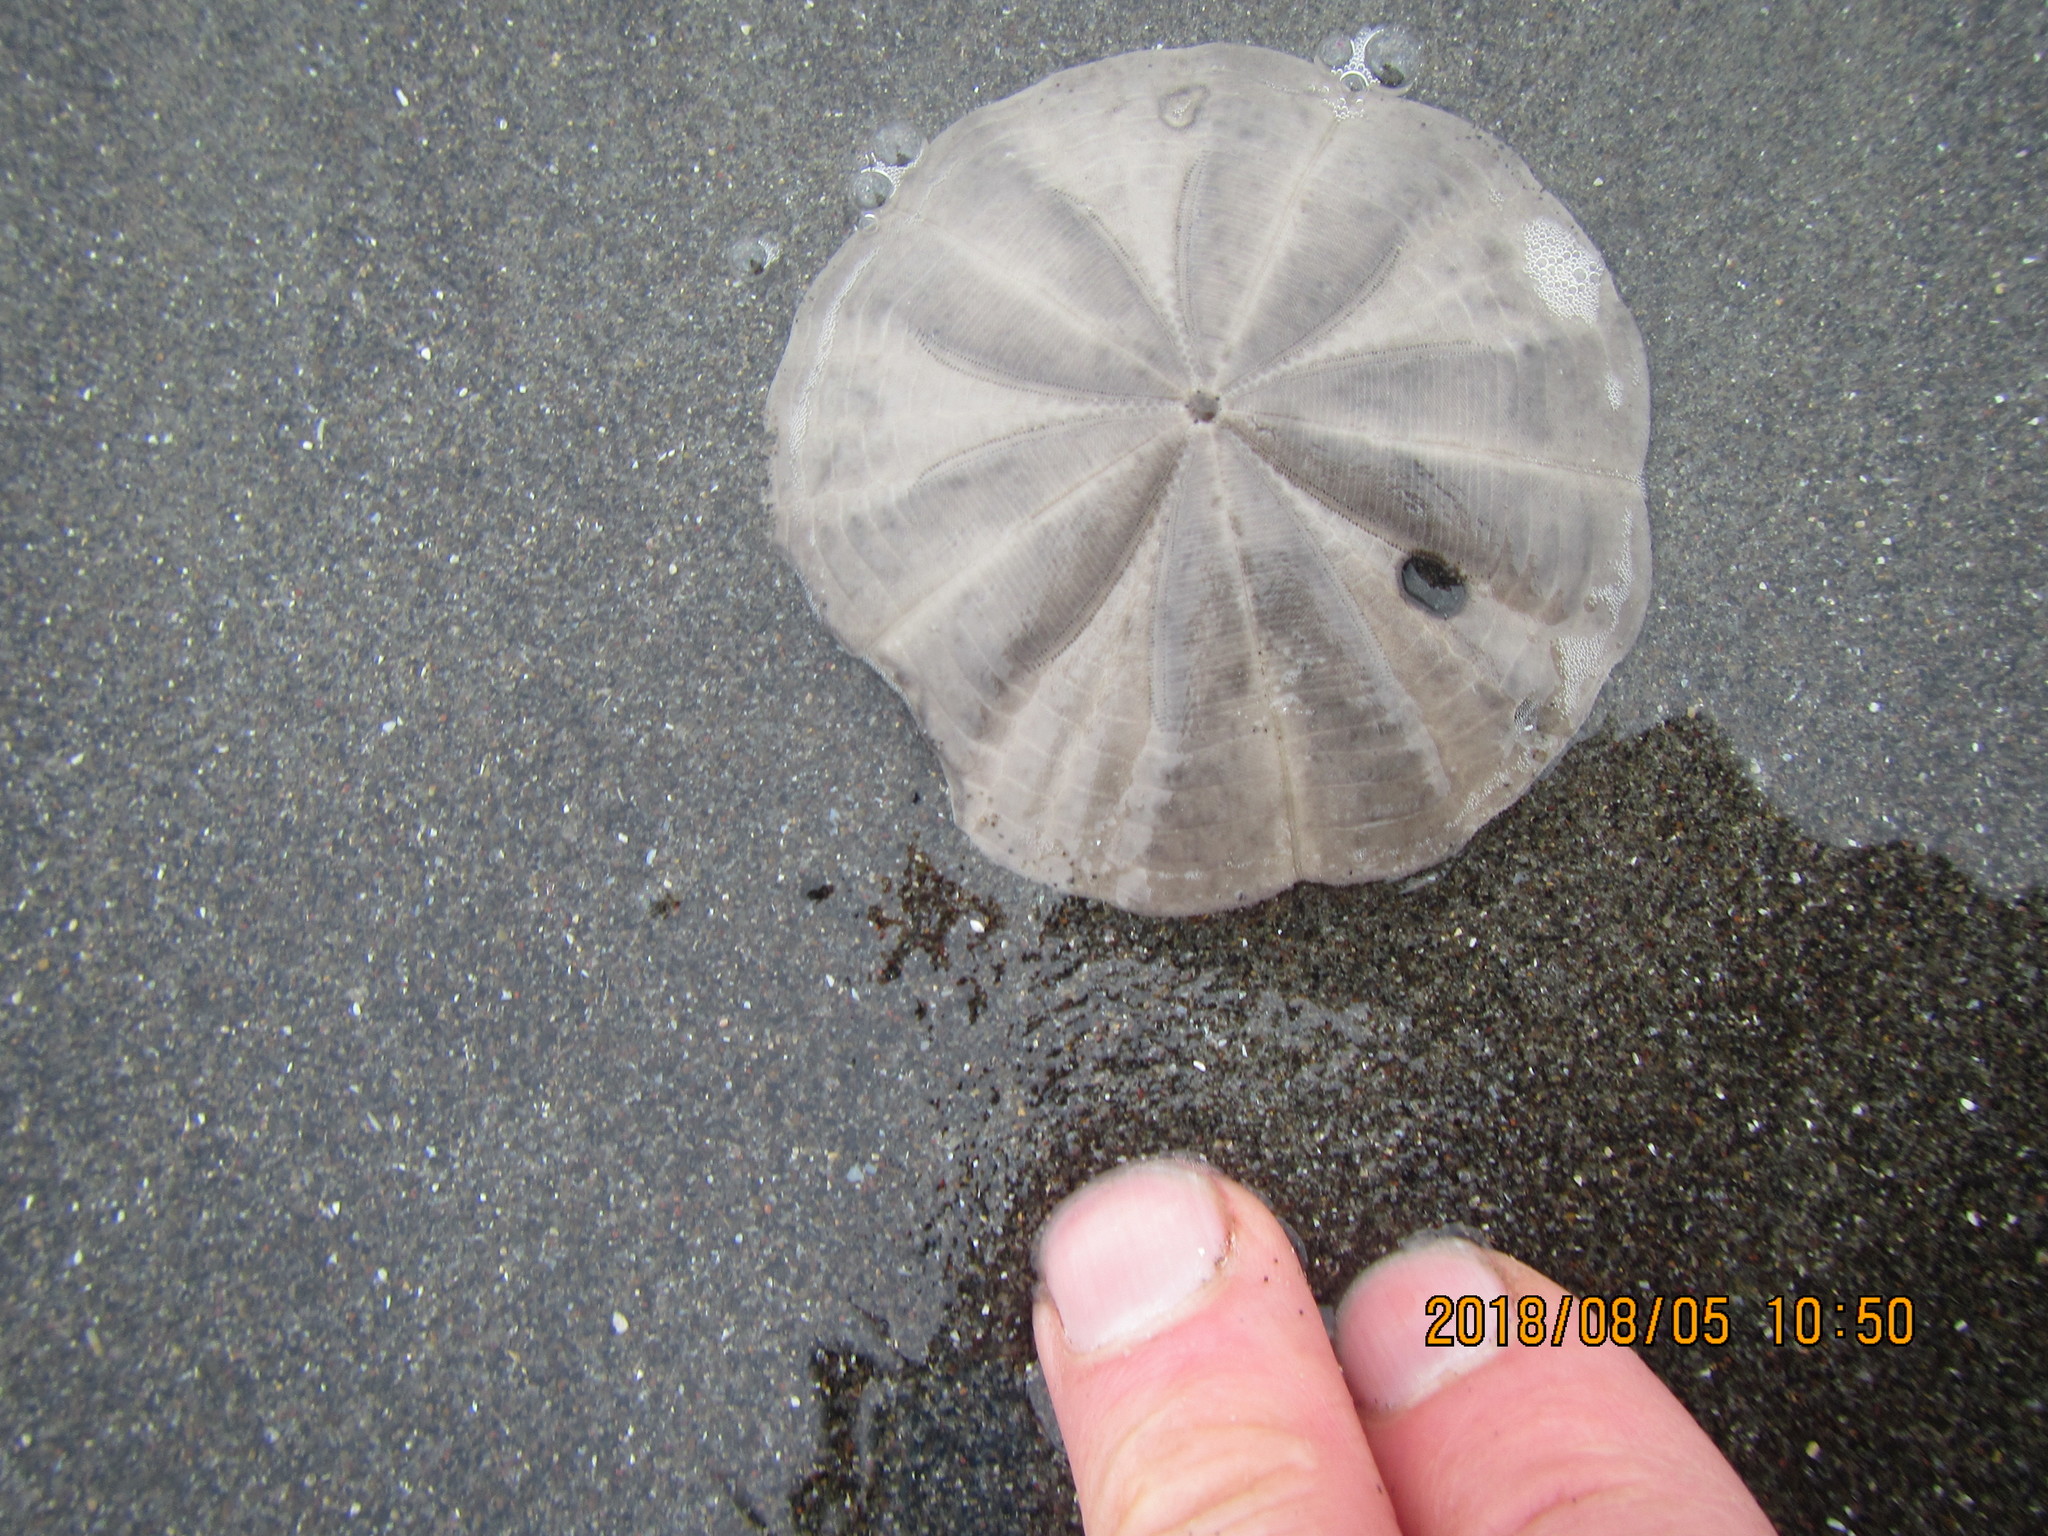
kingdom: Animalia
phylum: Echinodermata
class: Echinoidea
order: Clypeasteroida
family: Clypeasteridae
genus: Fellaster
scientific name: Fellaster zelandiae
